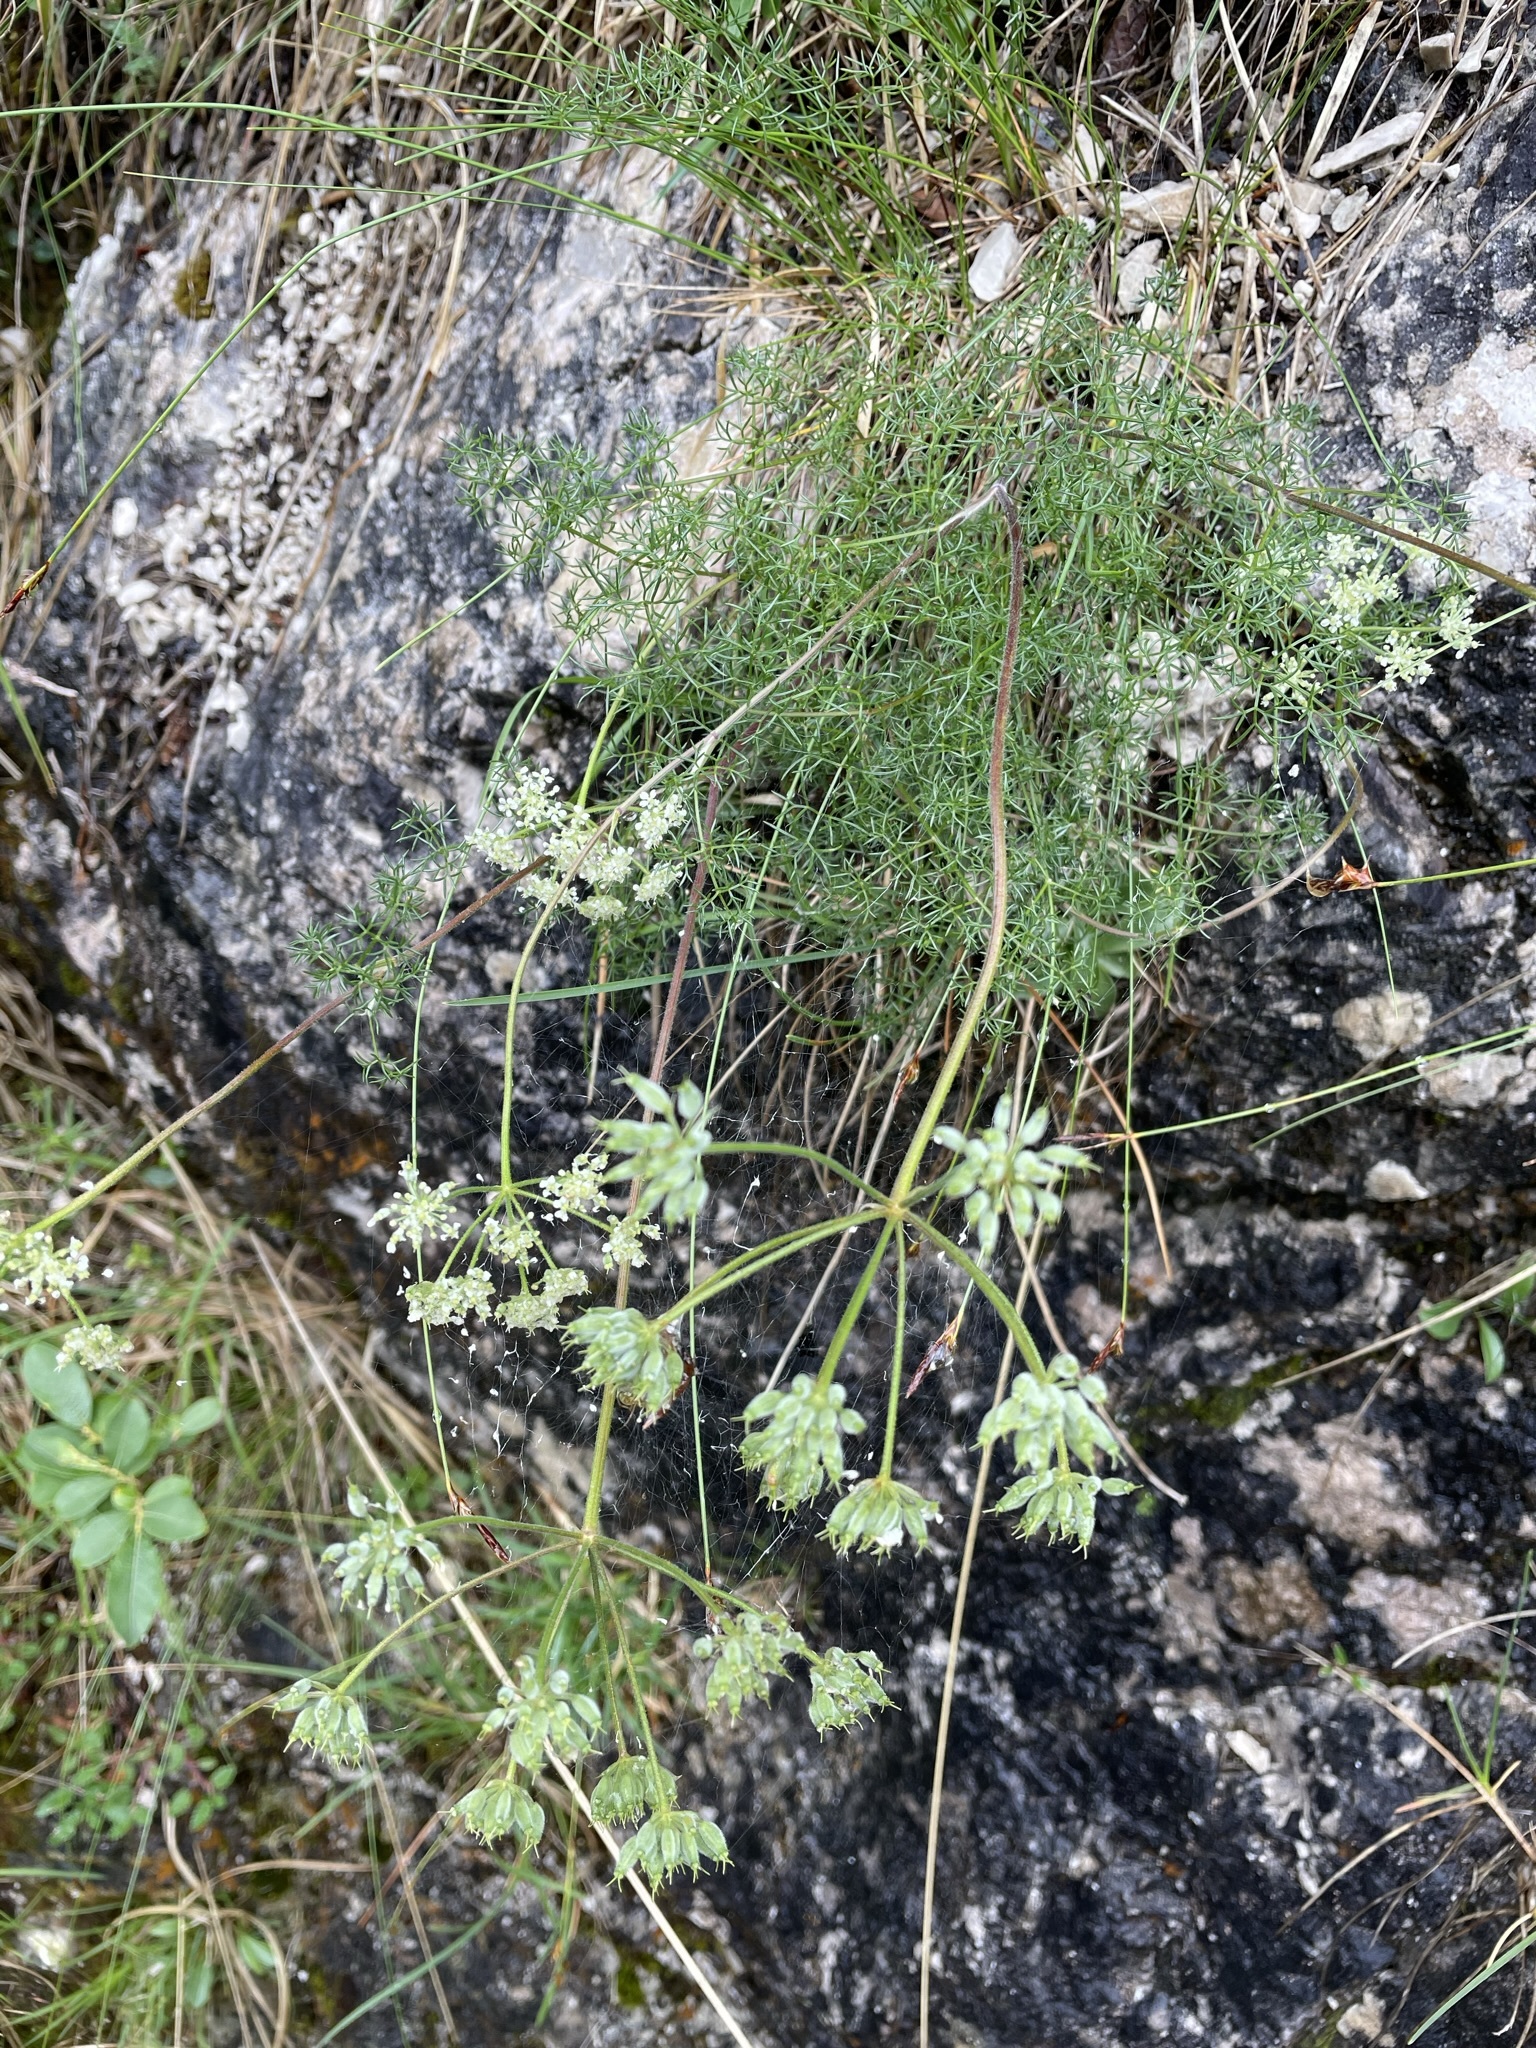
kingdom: Plantae
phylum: Tracheophyta
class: Magnoliopsida
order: Apiales
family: Apiaceae
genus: Athamanta
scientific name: Athamanta cretensis
